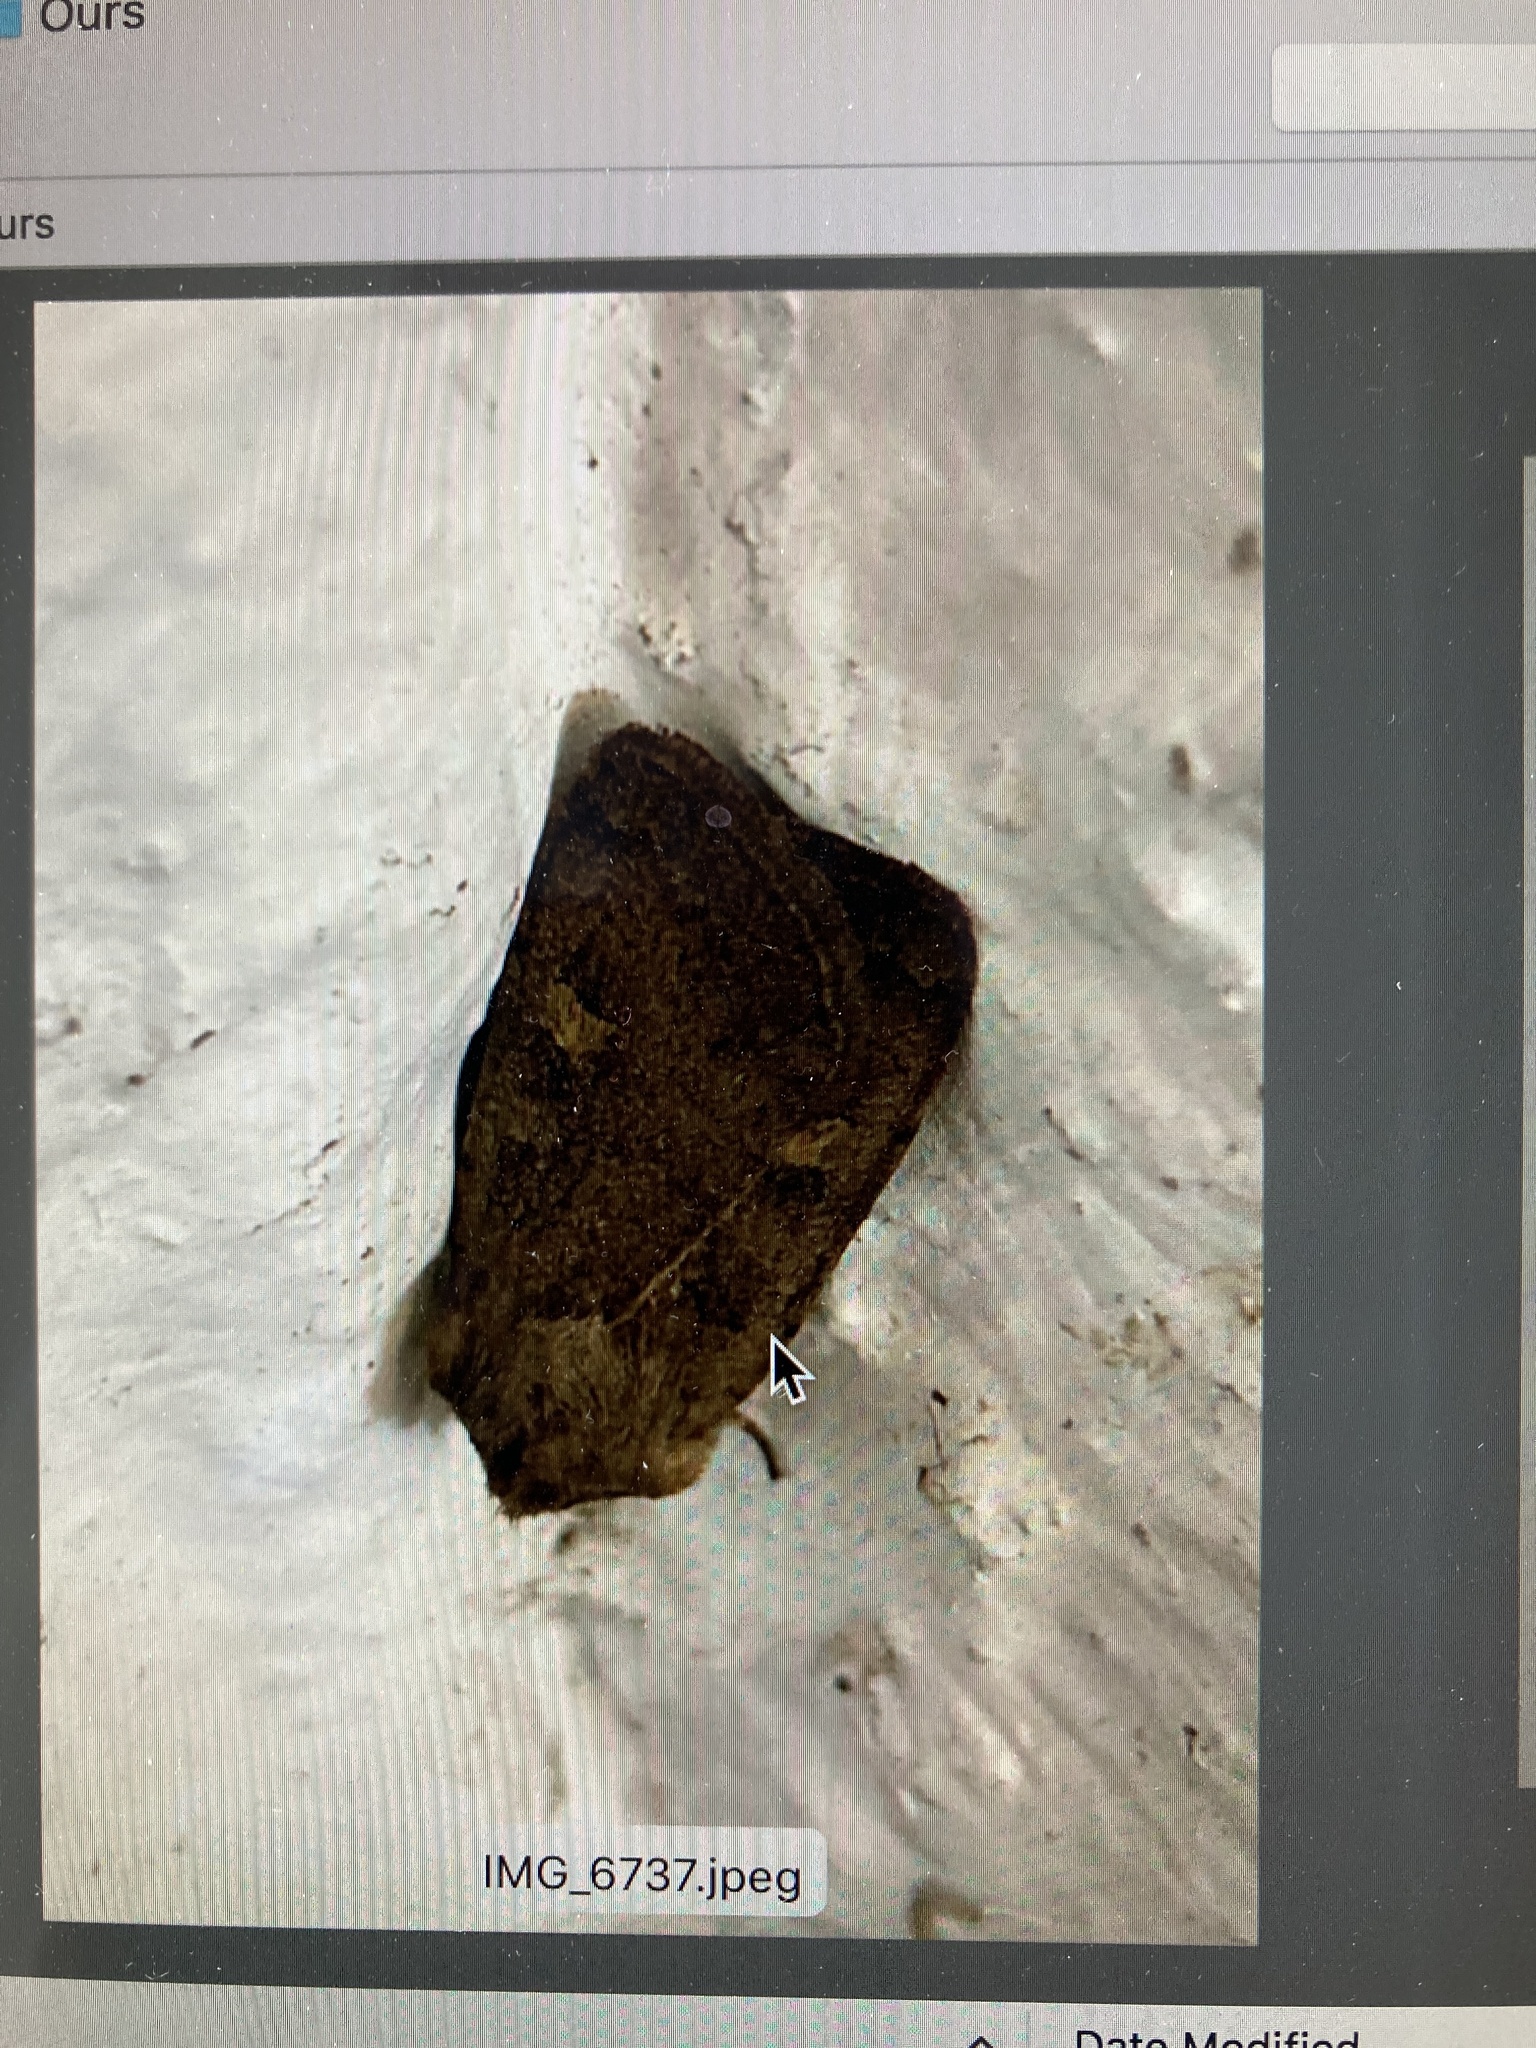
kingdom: Animalia
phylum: Arthropoda
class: Insecta
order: Lepidoptera
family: Noctuidae
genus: Xestia
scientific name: Xestia xanthographa
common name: Square-spot rustic
